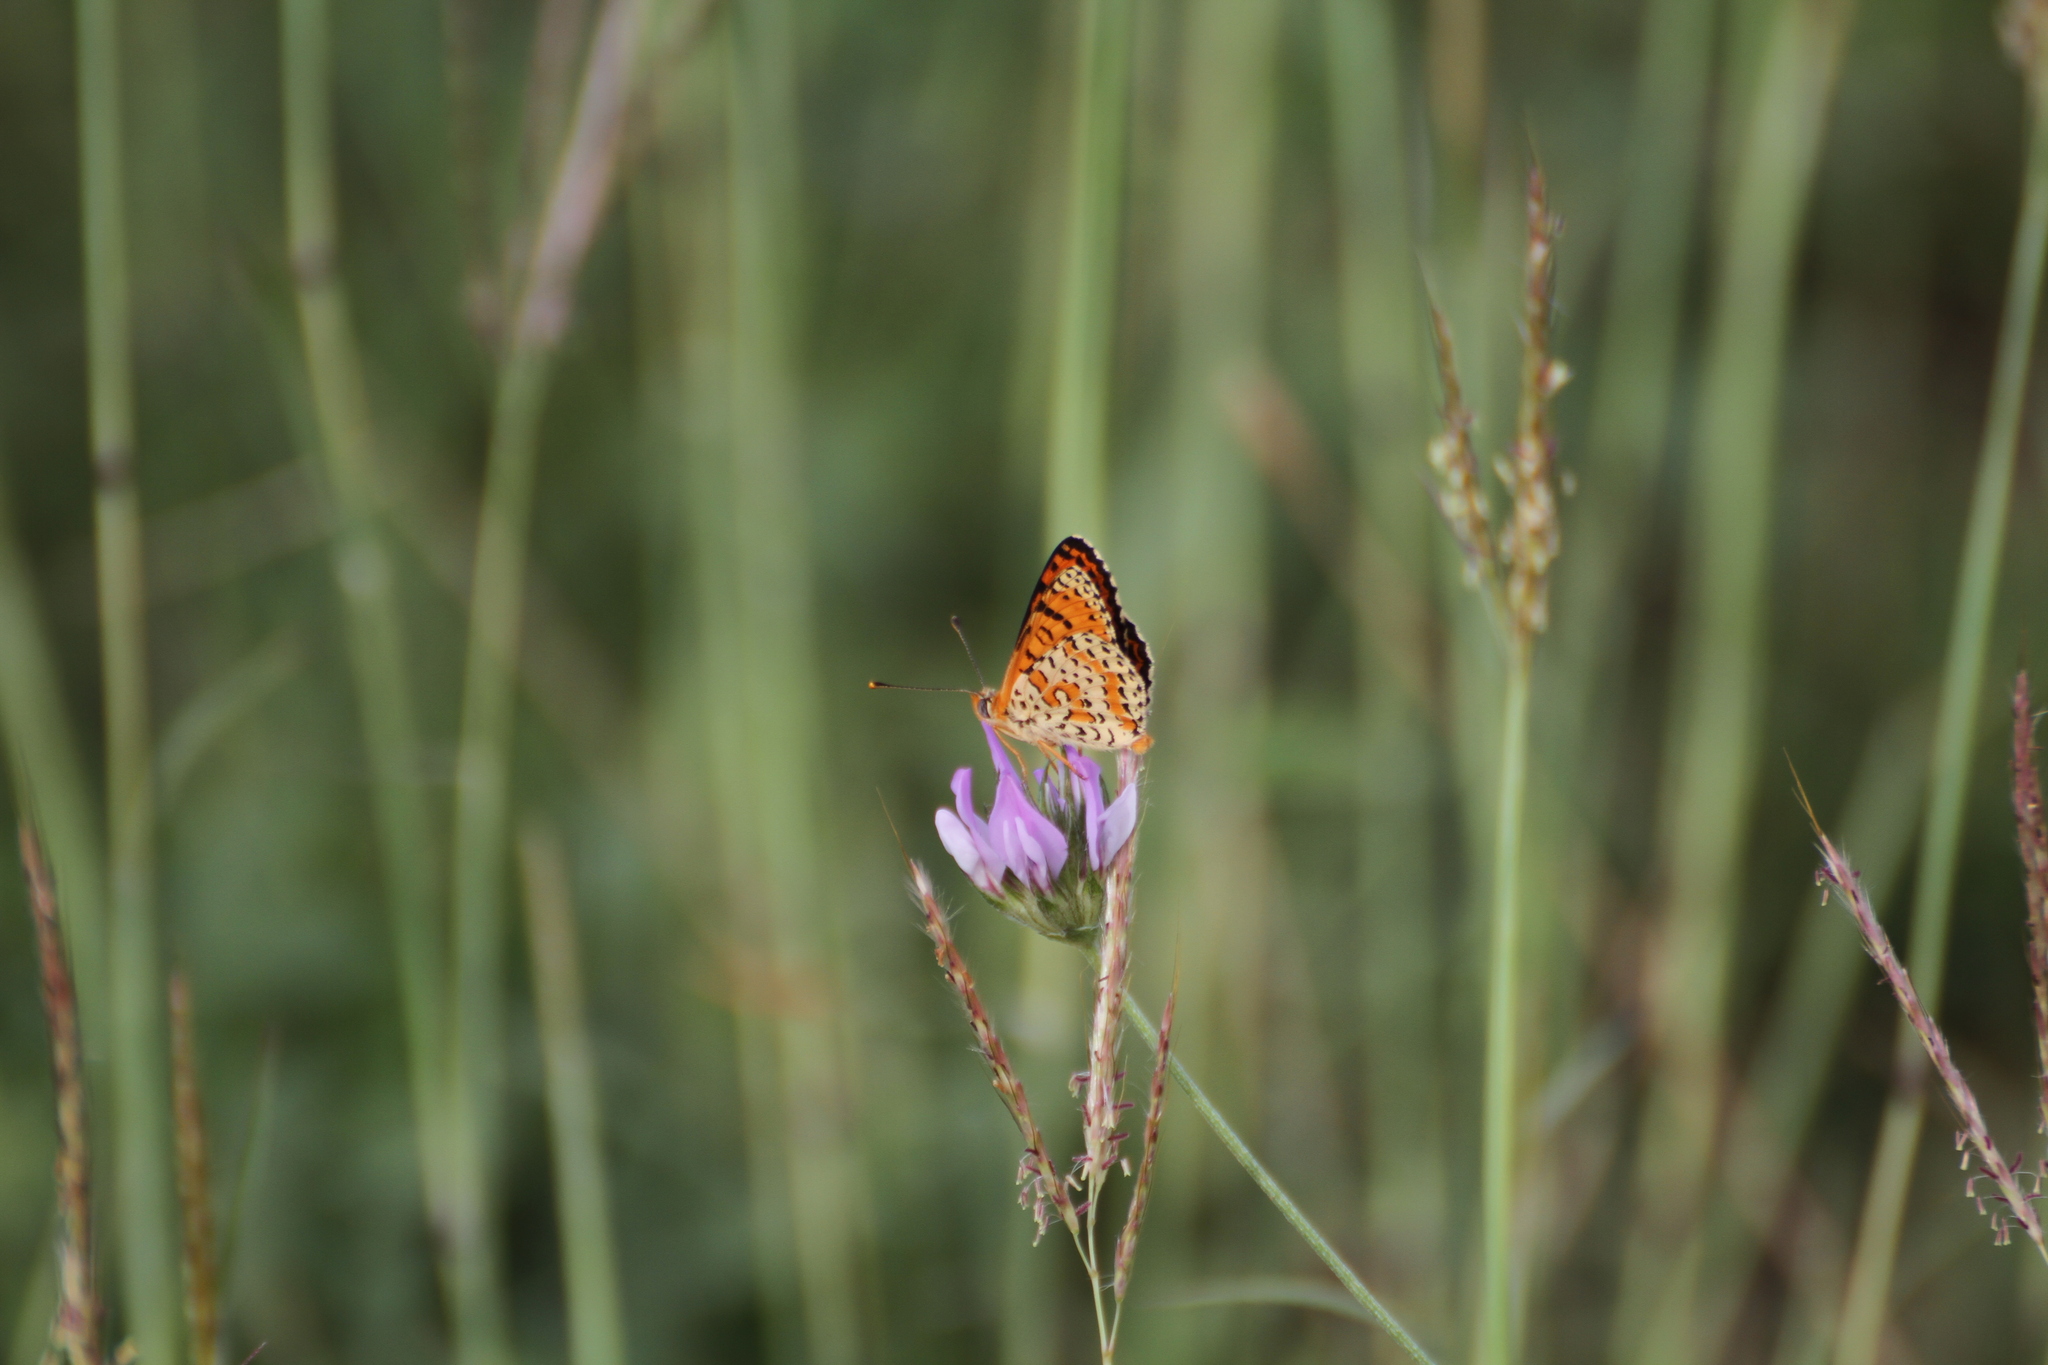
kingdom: Animalia
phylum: Arthropoda
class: Insecta
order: Lepidoptera
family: Nymphalidae
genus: Melitaea
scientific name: Melitaea didyma
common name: Spotted fritillary
